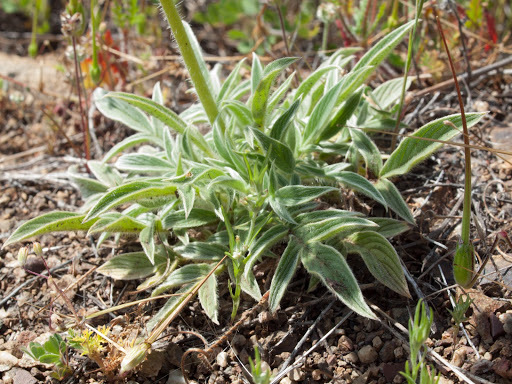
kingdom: Plantae
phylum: Tracheophyta
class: Magnoliopsida
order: Boraginales
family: Hydrophyllaceae
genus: Phacelia
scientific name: Phacelia imbricata
